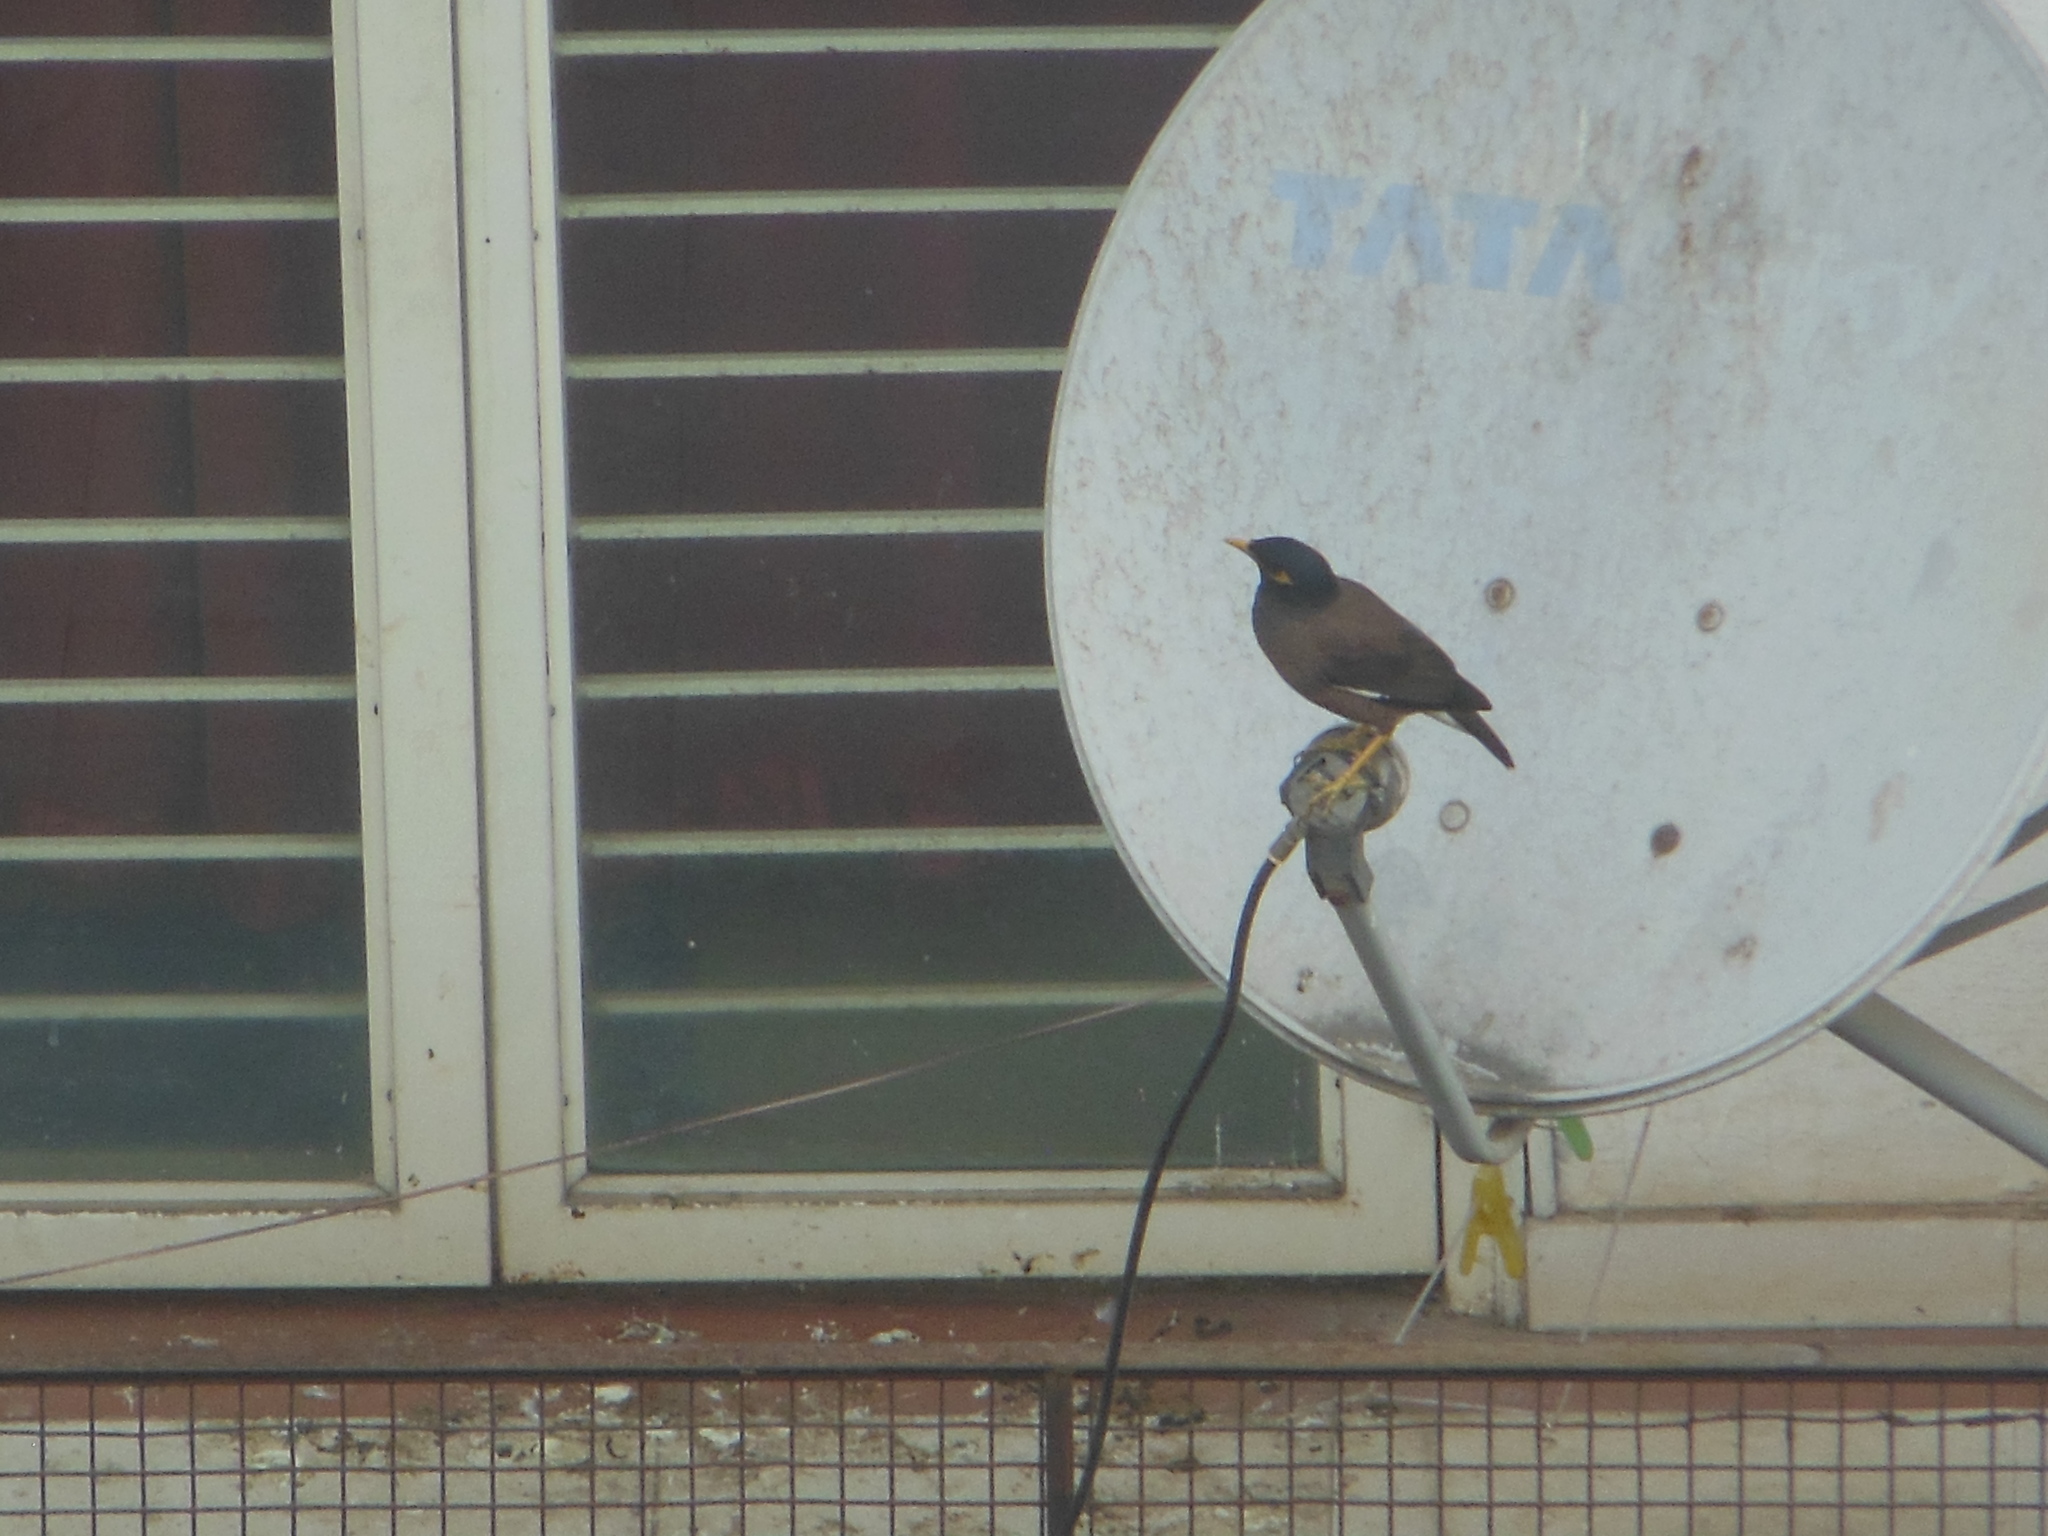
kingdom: Animalia
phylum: Chordata
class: Aves
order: Passeriformes
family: Sturnidae
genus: Acridotheres
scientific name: Acridotheres tristis
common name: Common myna
